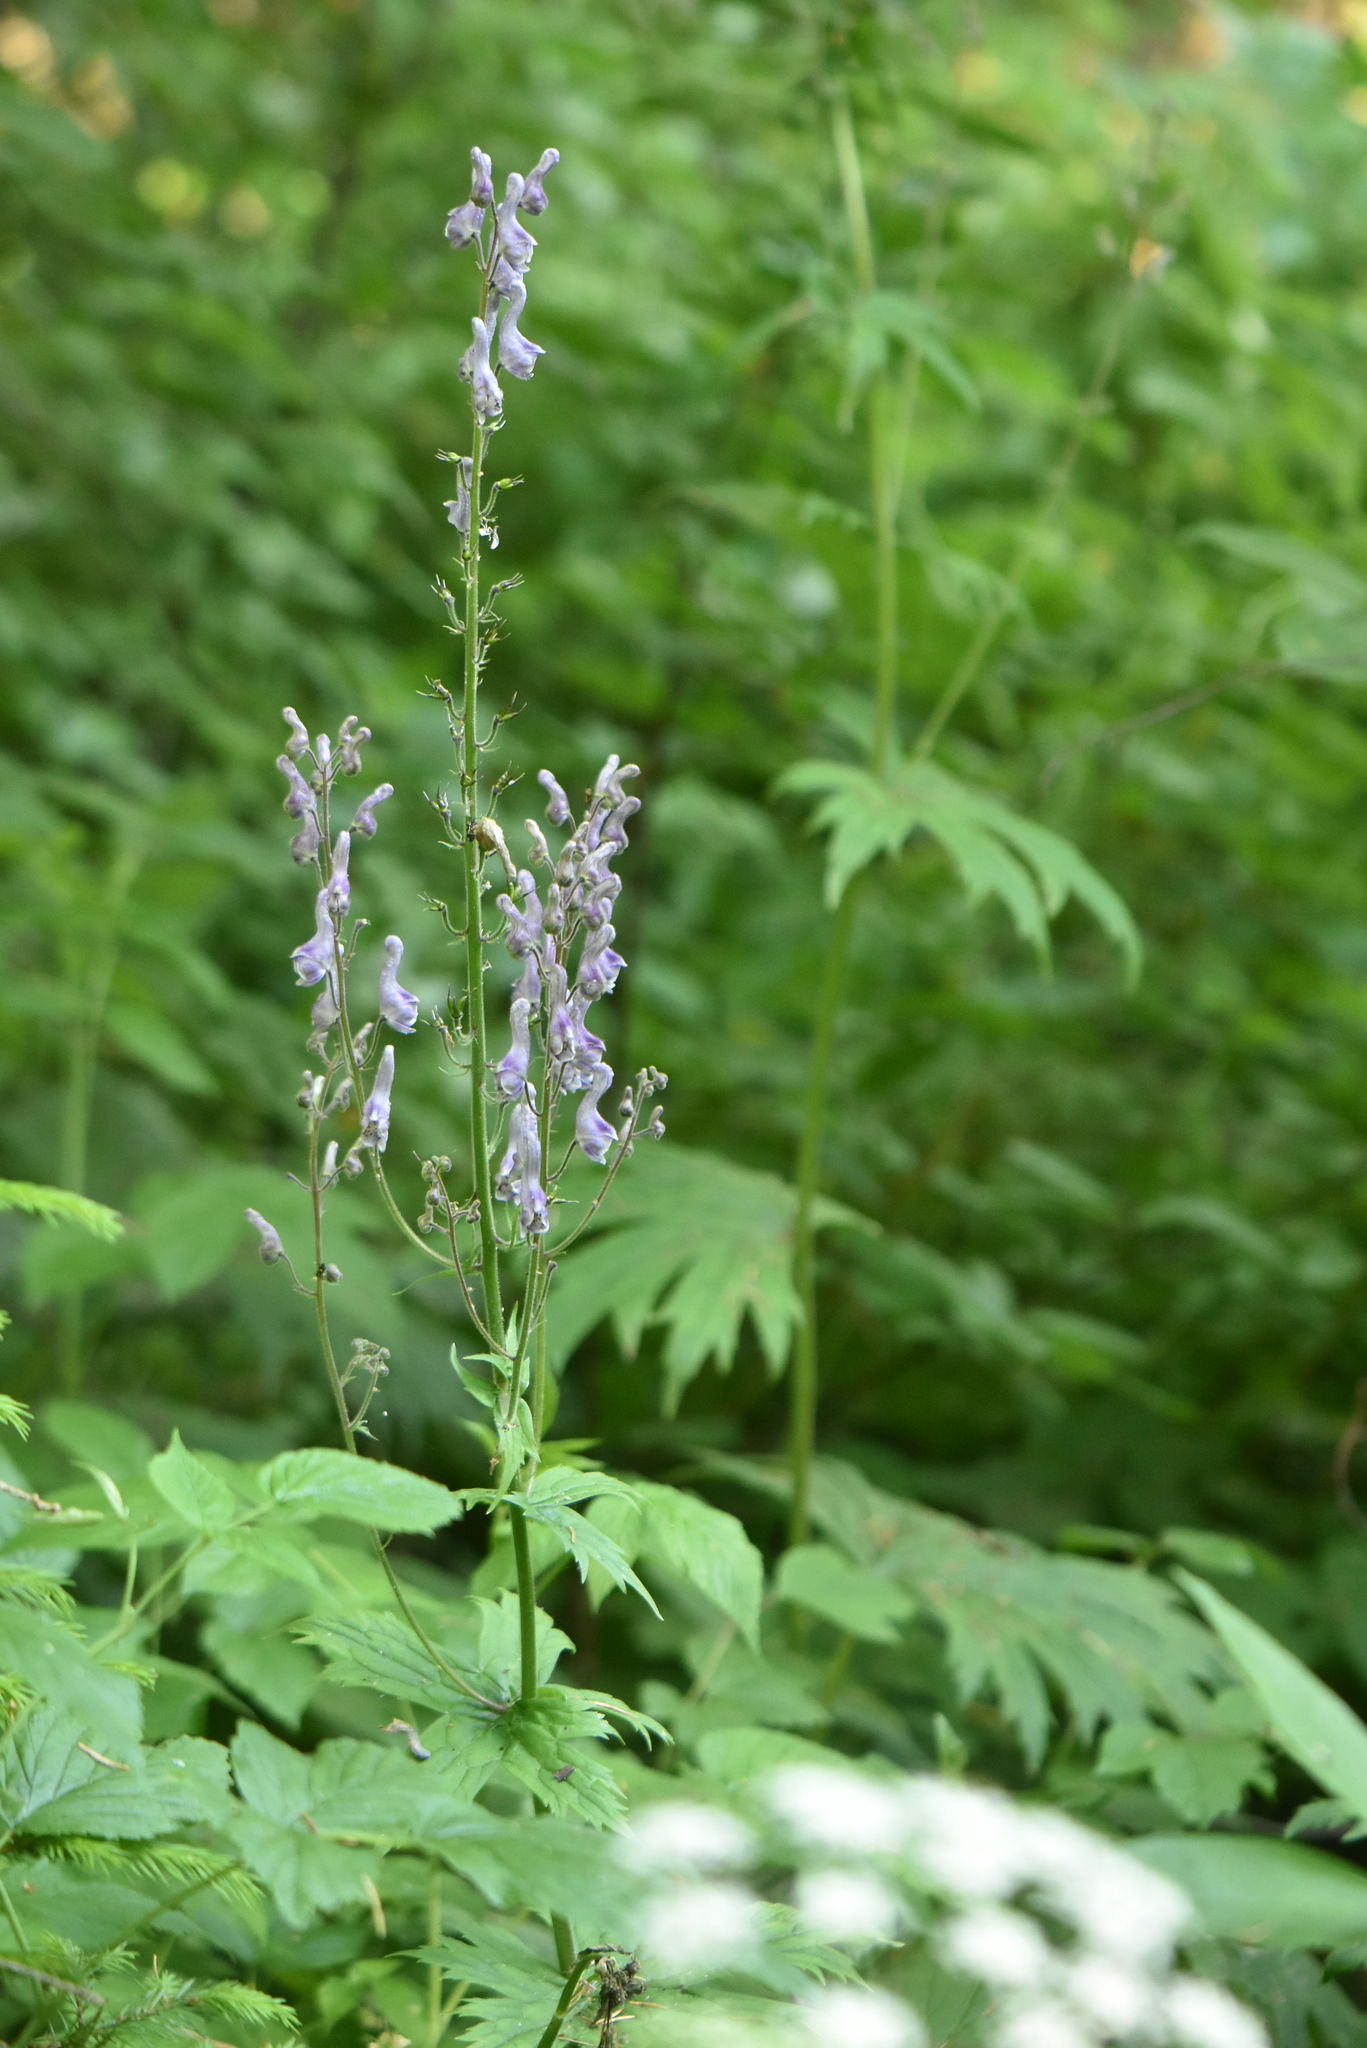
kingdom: Plantae
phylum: Tracheophyta
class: Magnoliopsida
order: Ranunculales
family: Ranunculaceae
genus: Aconitum
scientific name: Aconitum septentrionale
